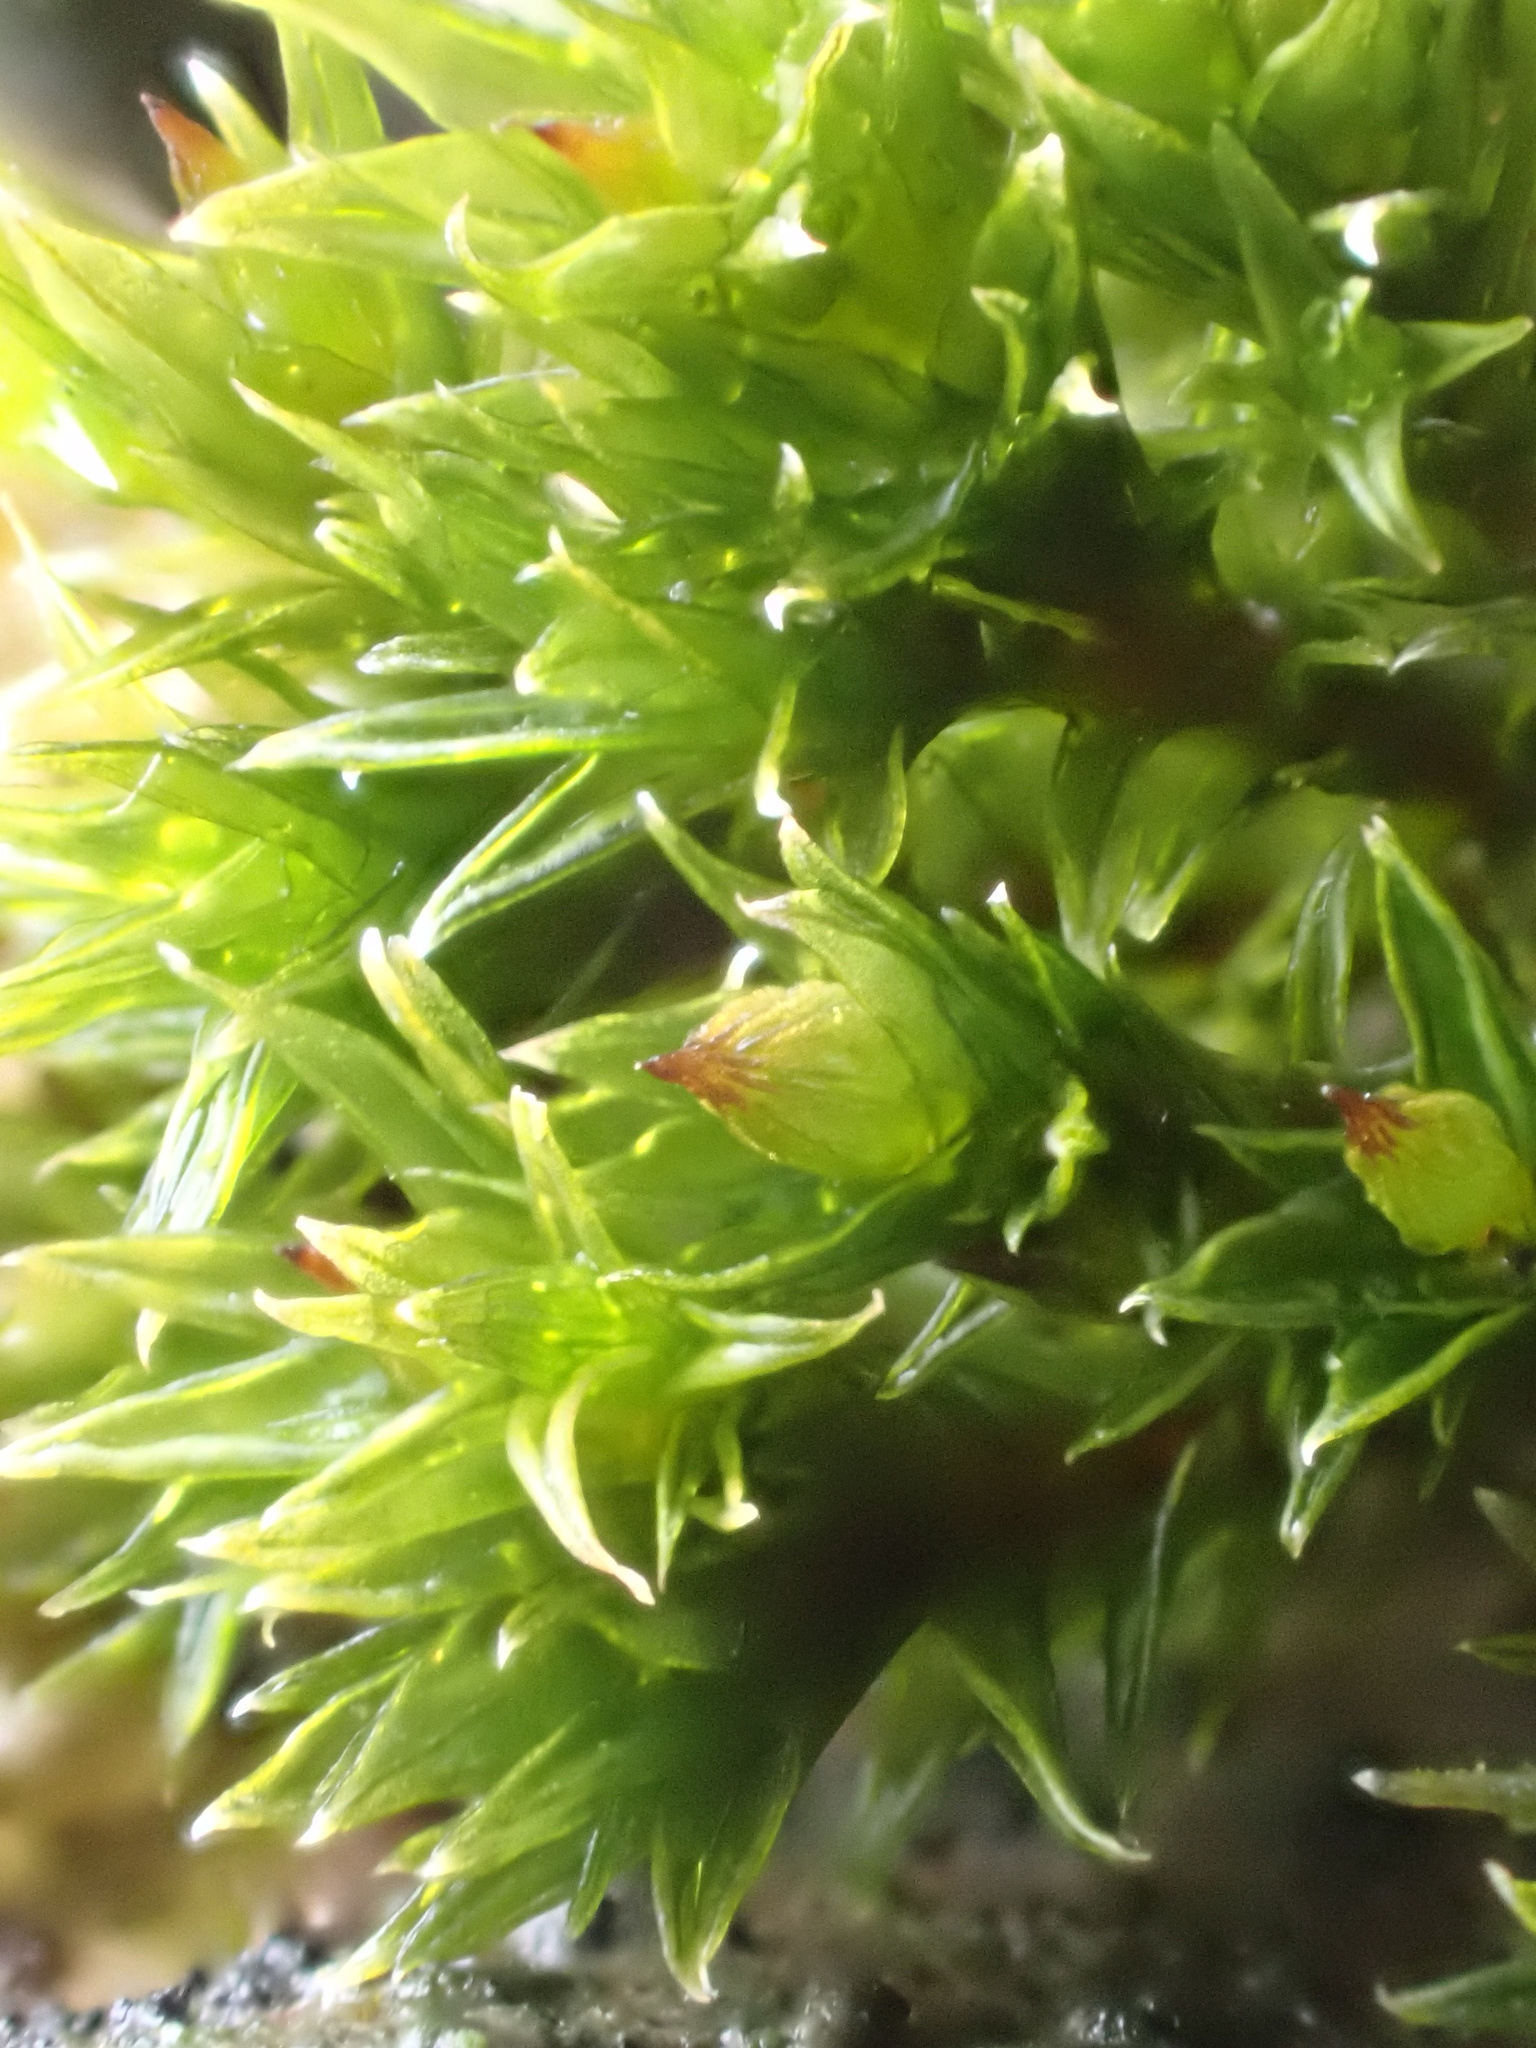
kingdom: Plantae
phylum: Bryophyta
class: Bryopsida
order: Orthotrichales
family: Orthotrichaceae
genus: Orthotrichum
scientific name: Orthotrichum diaphanum
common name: White-tipped bristle-moss
